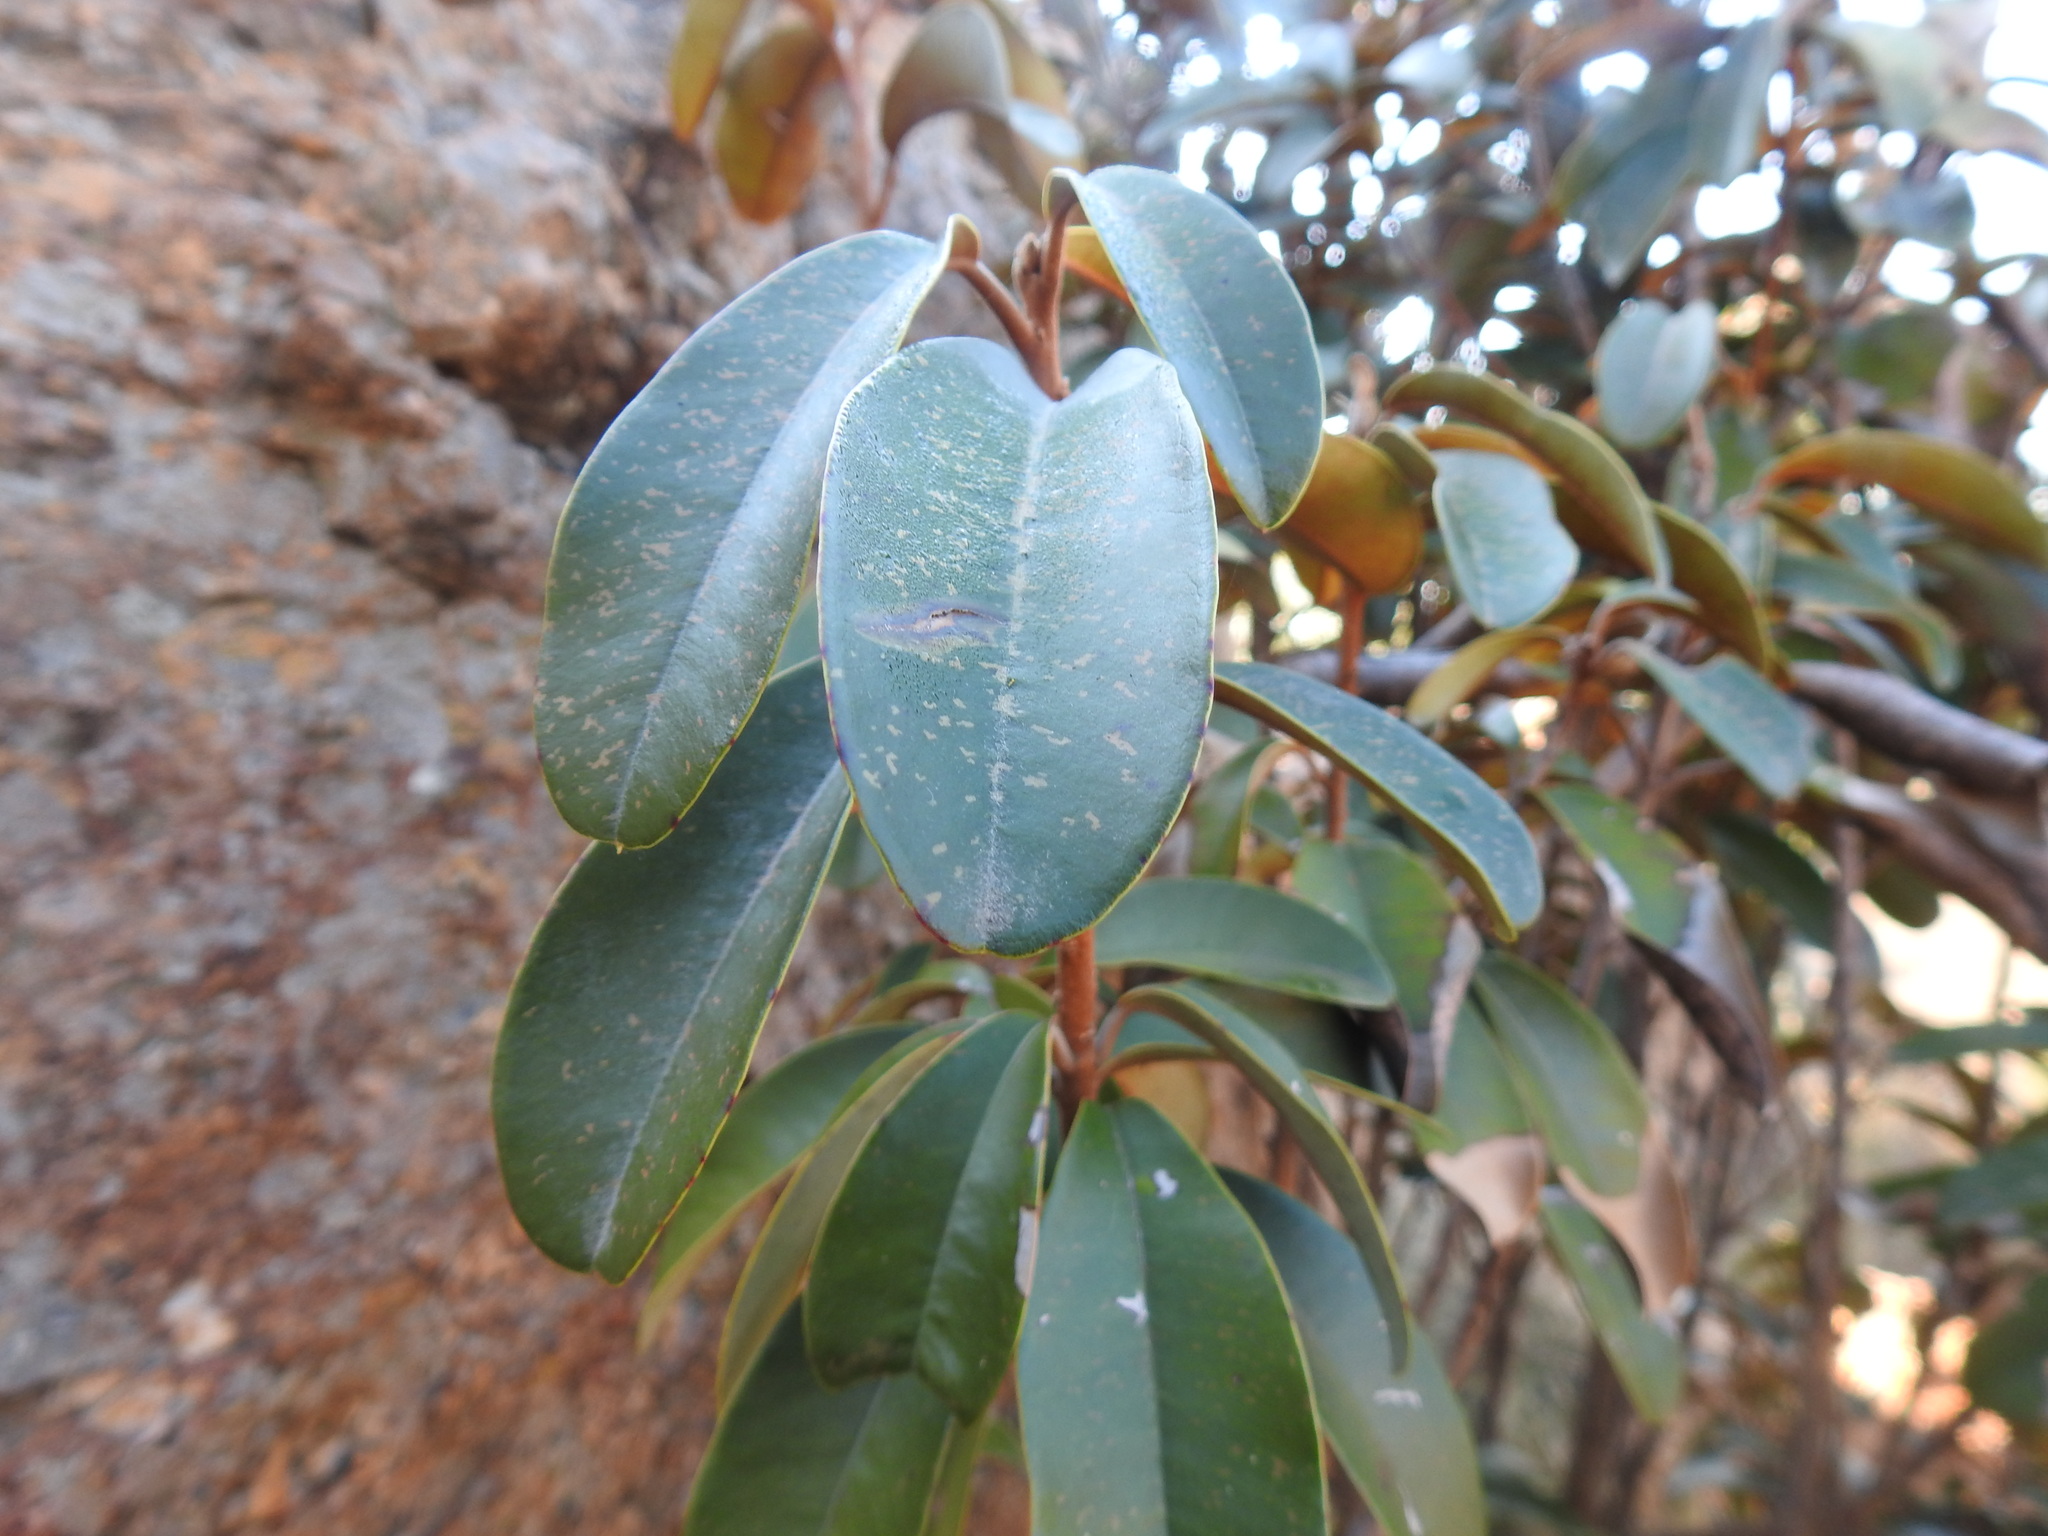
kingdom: Plantae
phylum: Tracheophyta
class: Magnoliopsida
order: Ericales
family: Sapotaceae
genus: Englerophytum
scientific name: Englerophytum magalismontanum
